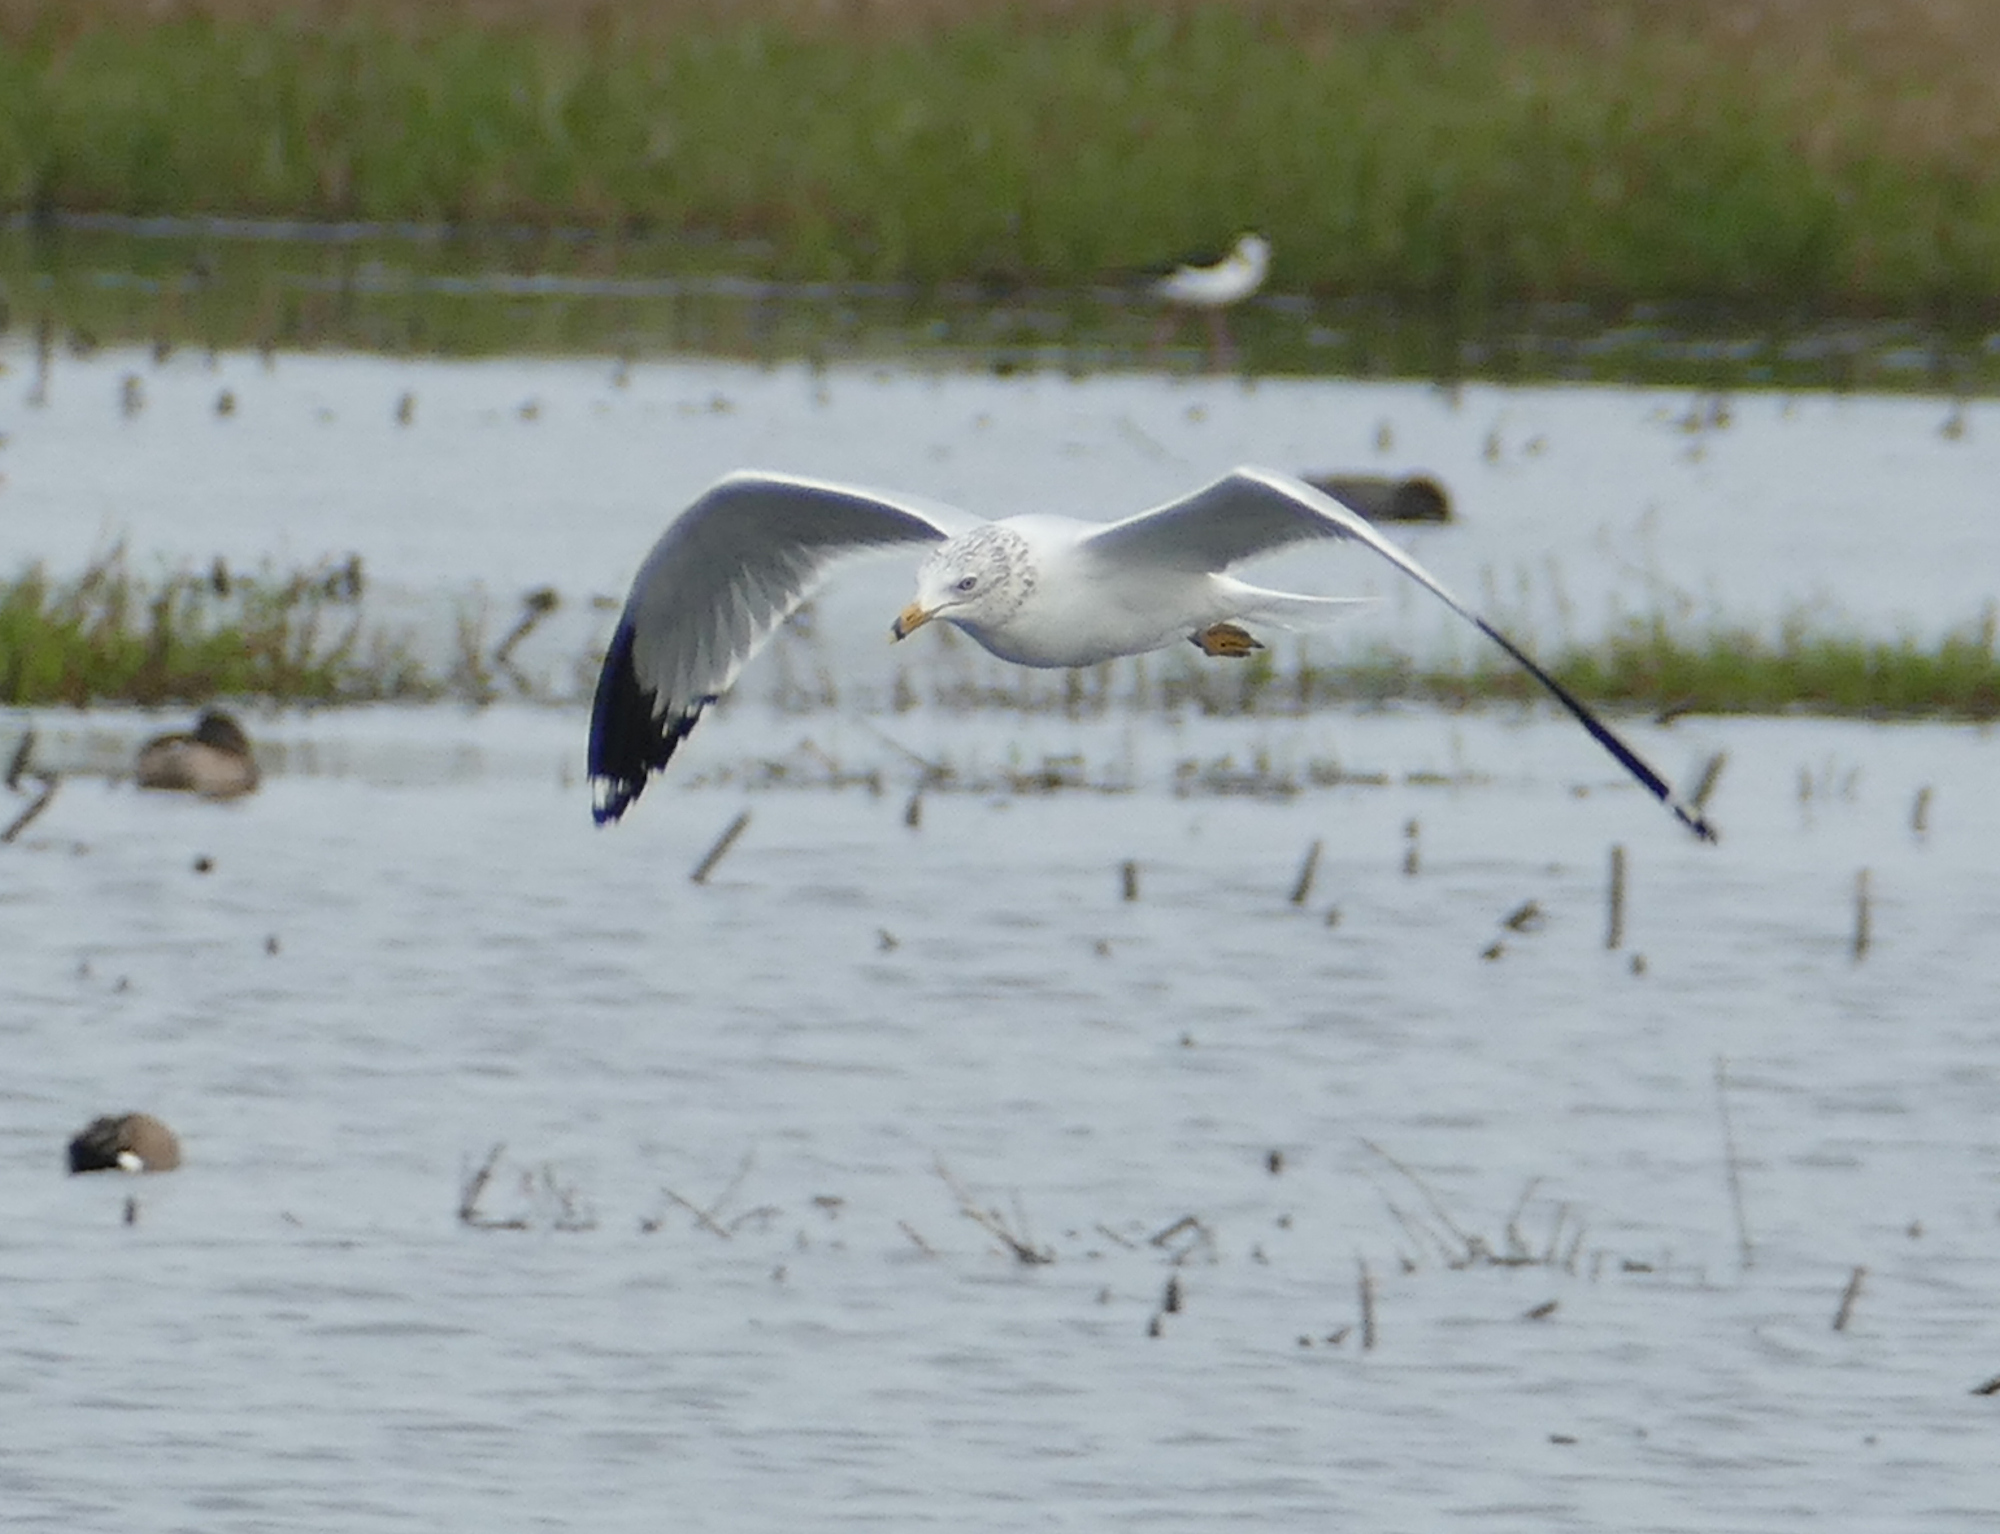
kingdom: Animalia
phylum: Chordata
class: Aves
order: Charadriiformes
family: Laridae
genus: Larus
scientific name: Larus delawarensis
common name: Ring-billed gull
